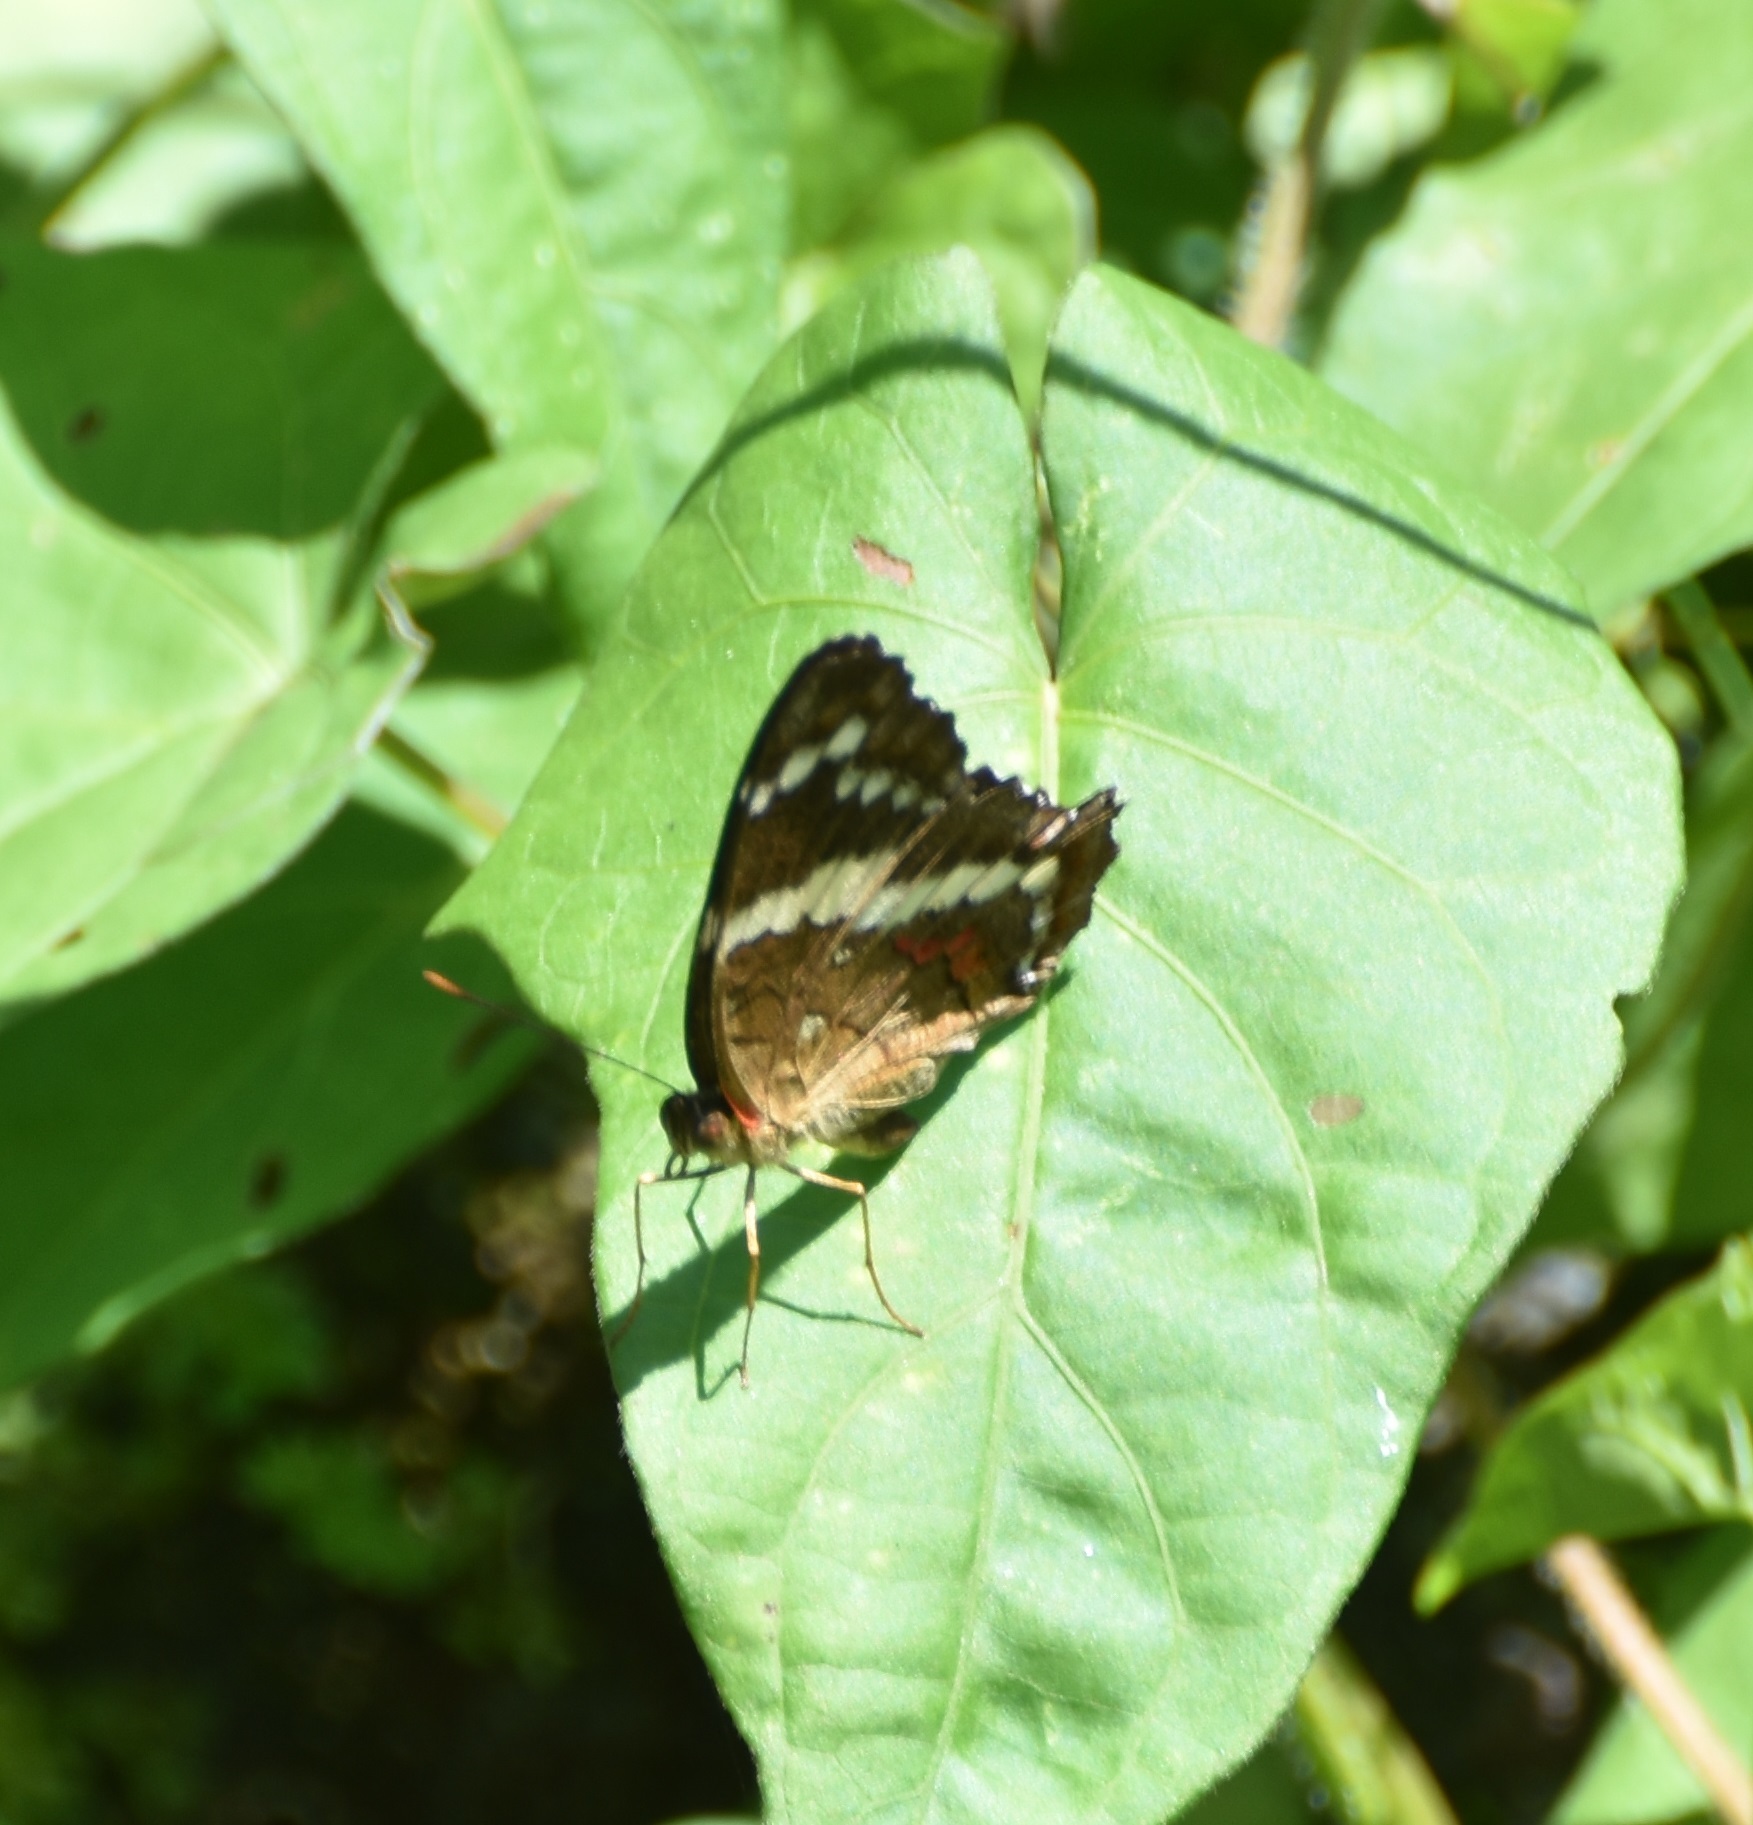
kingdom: Animalia
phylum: Arthropoda
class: Insecta
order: Lepidoptera
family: Nymphalidae
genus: Anartia
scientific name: Anartia fatima
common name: Banded peacock
